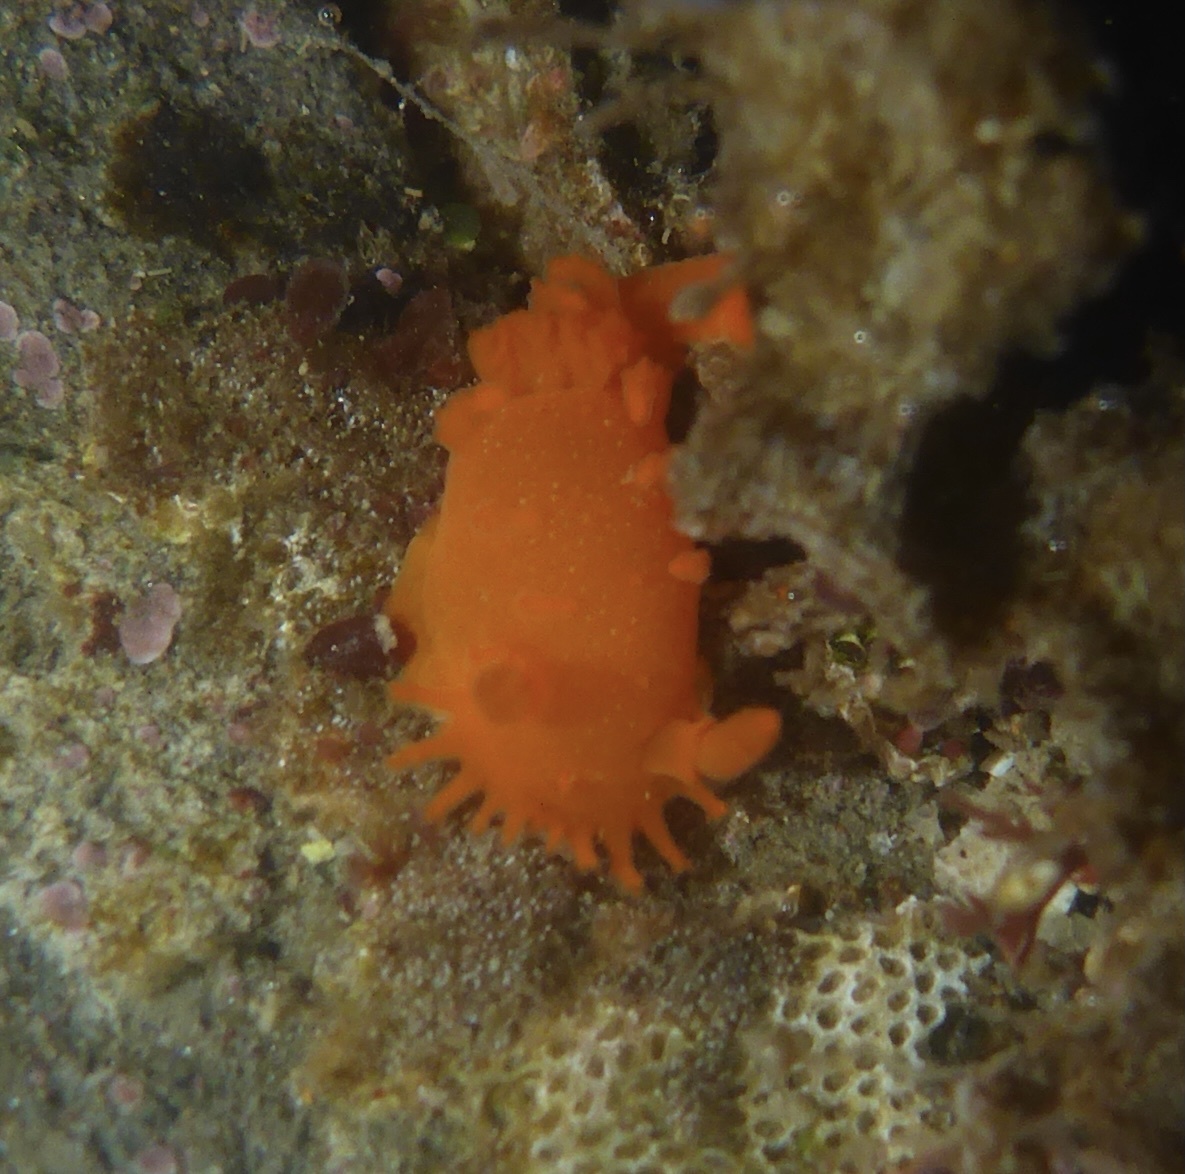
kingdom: Animalia
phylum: Mollusca
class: Gastropoda
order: Nudibranchia
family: Polyceridae
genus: Triopha
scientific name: Triopha maculata
